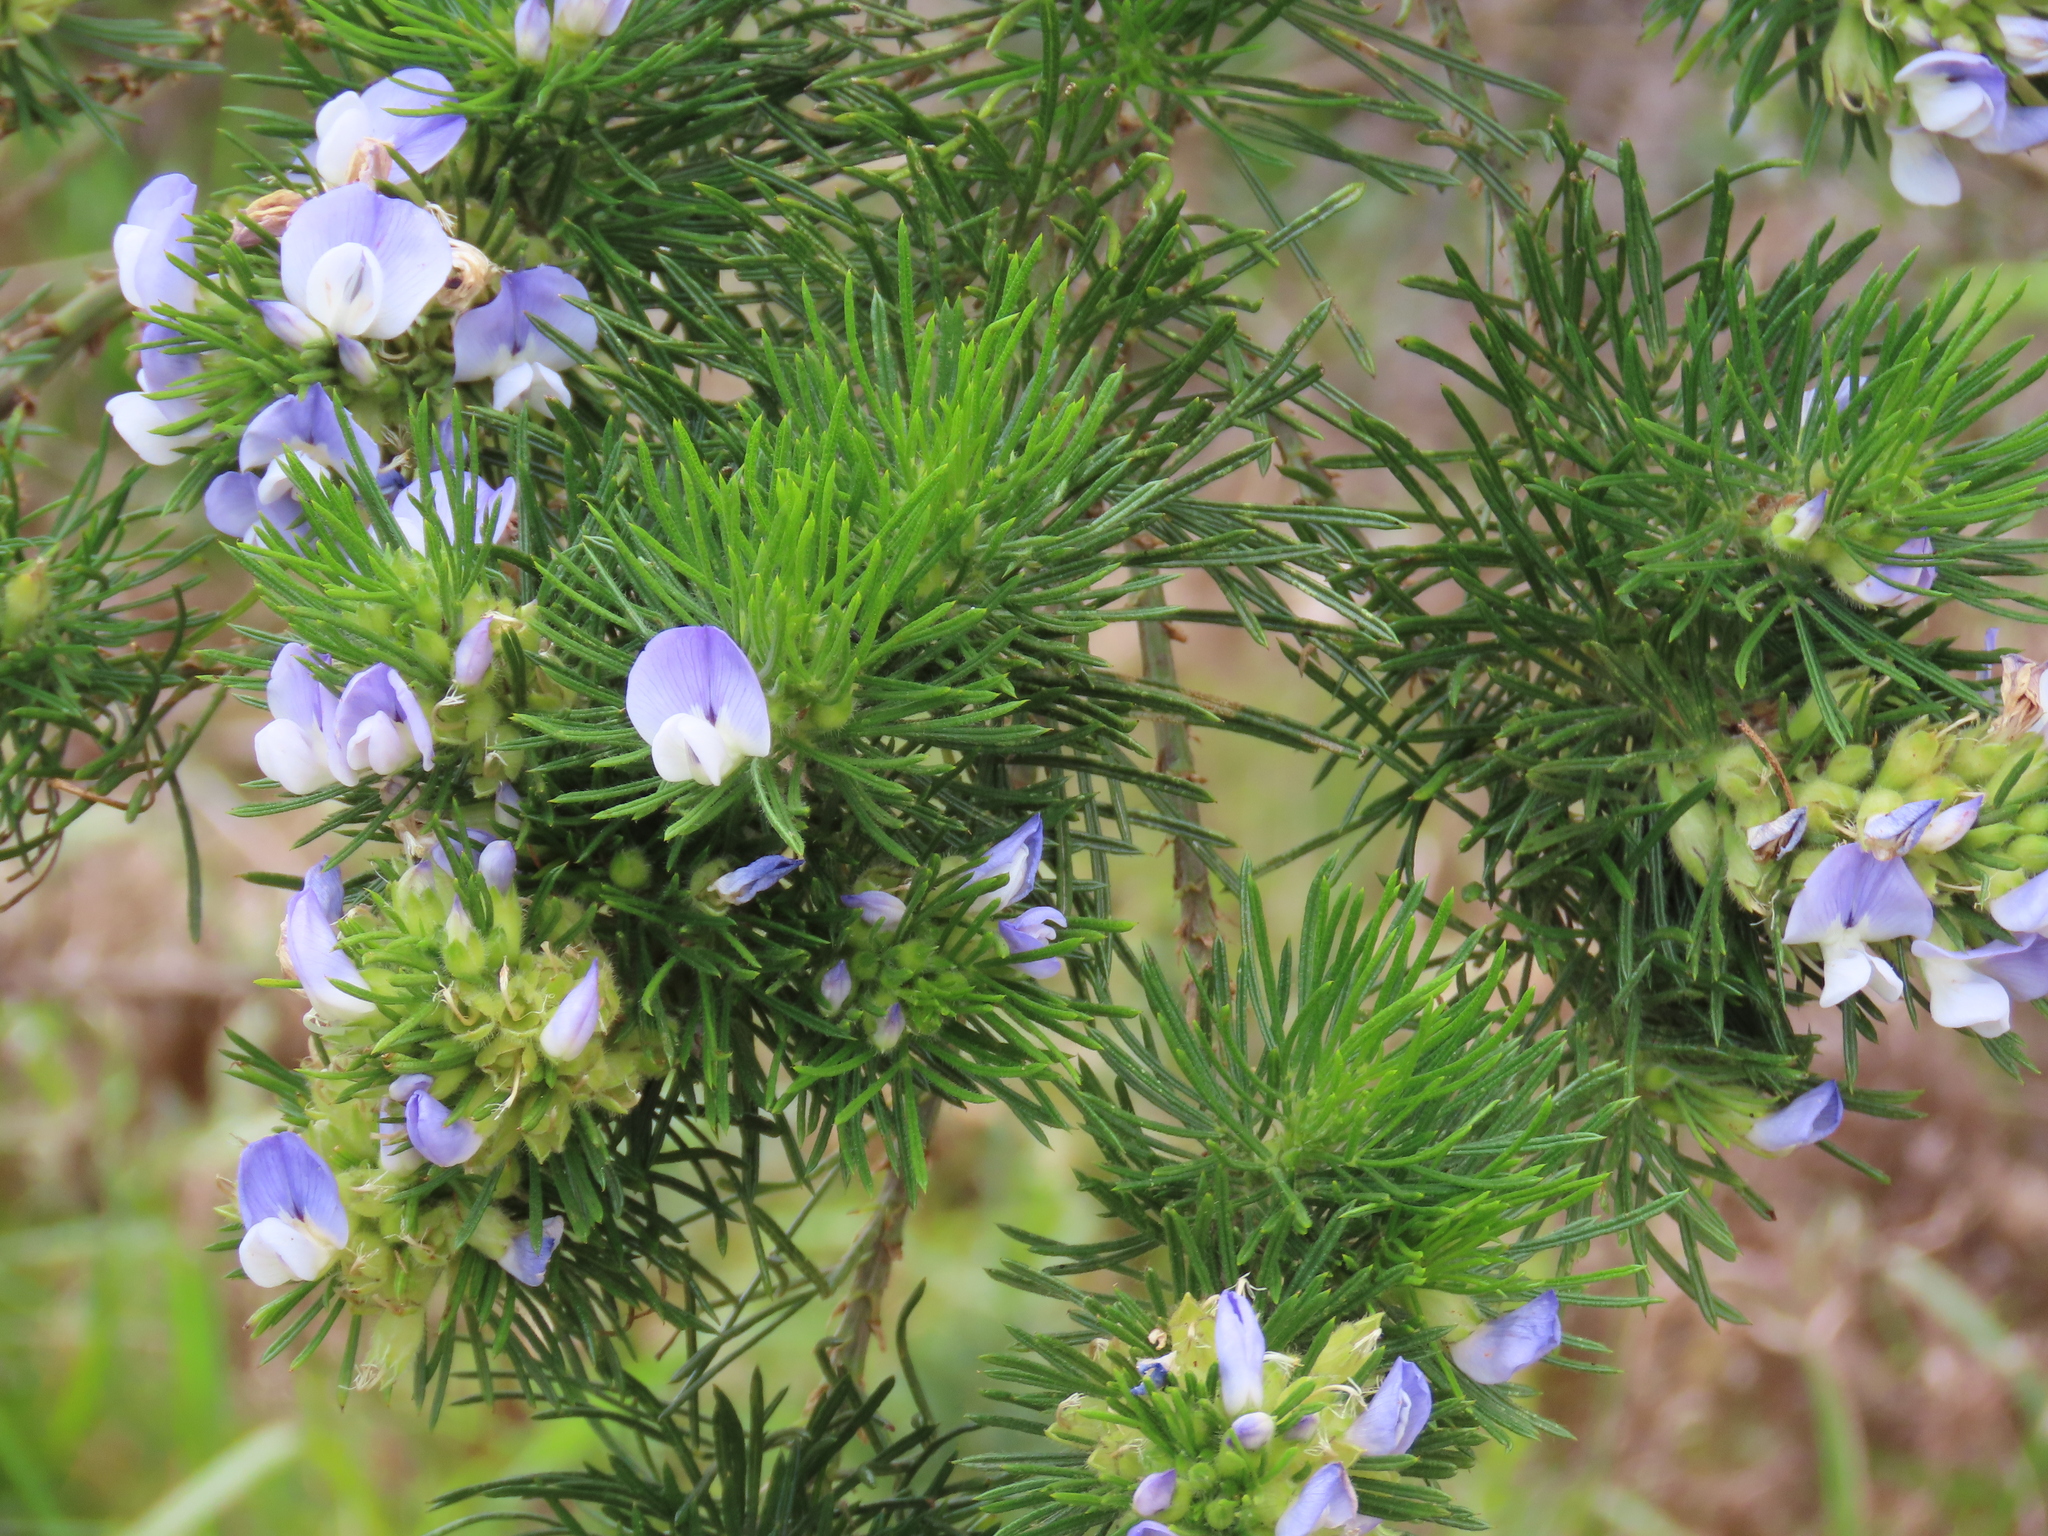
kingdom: Plantae
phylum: Tracheophyta
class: Magnoliopsida
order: Fabales
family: Fabaceae
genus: Psoralea
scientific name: Psoralea pinnata
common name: African scurfpea
